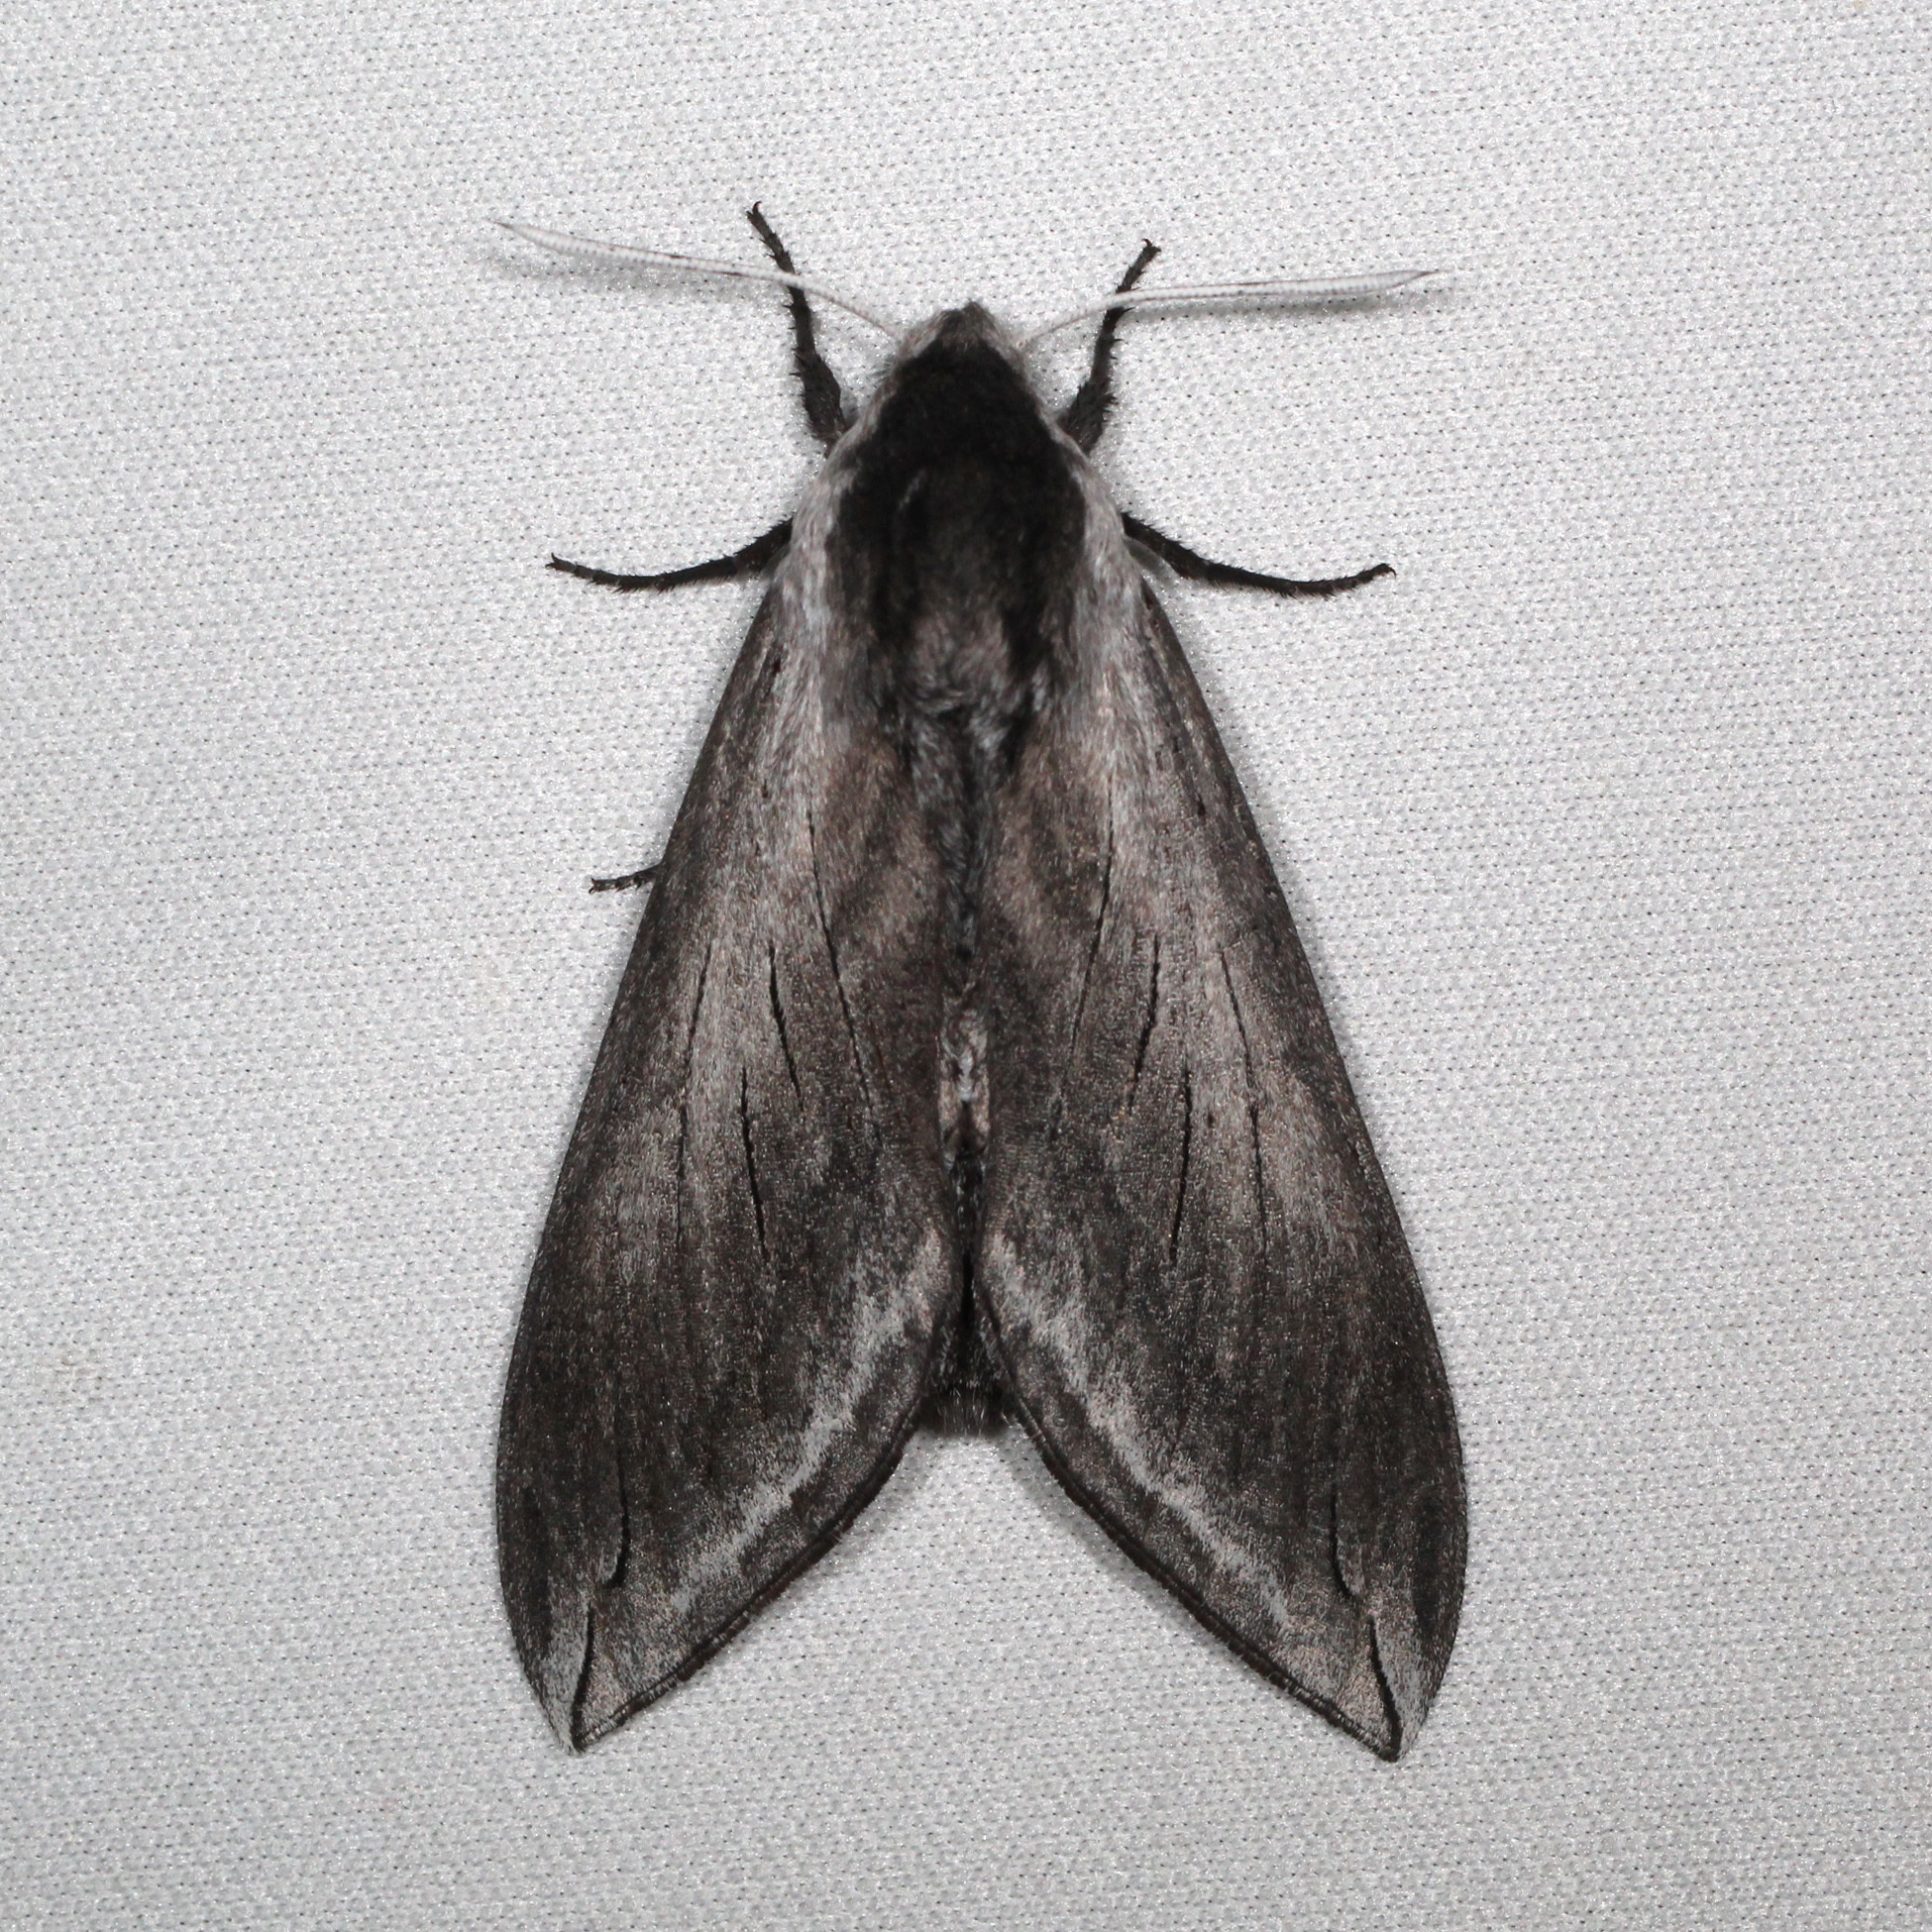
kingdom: Animalia
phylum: Arthropoda
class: Insecta
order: Lepidoptera
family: Sphingidae
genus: Sphinx
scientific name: Sphinx perelegans
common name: Elegant sphinx
